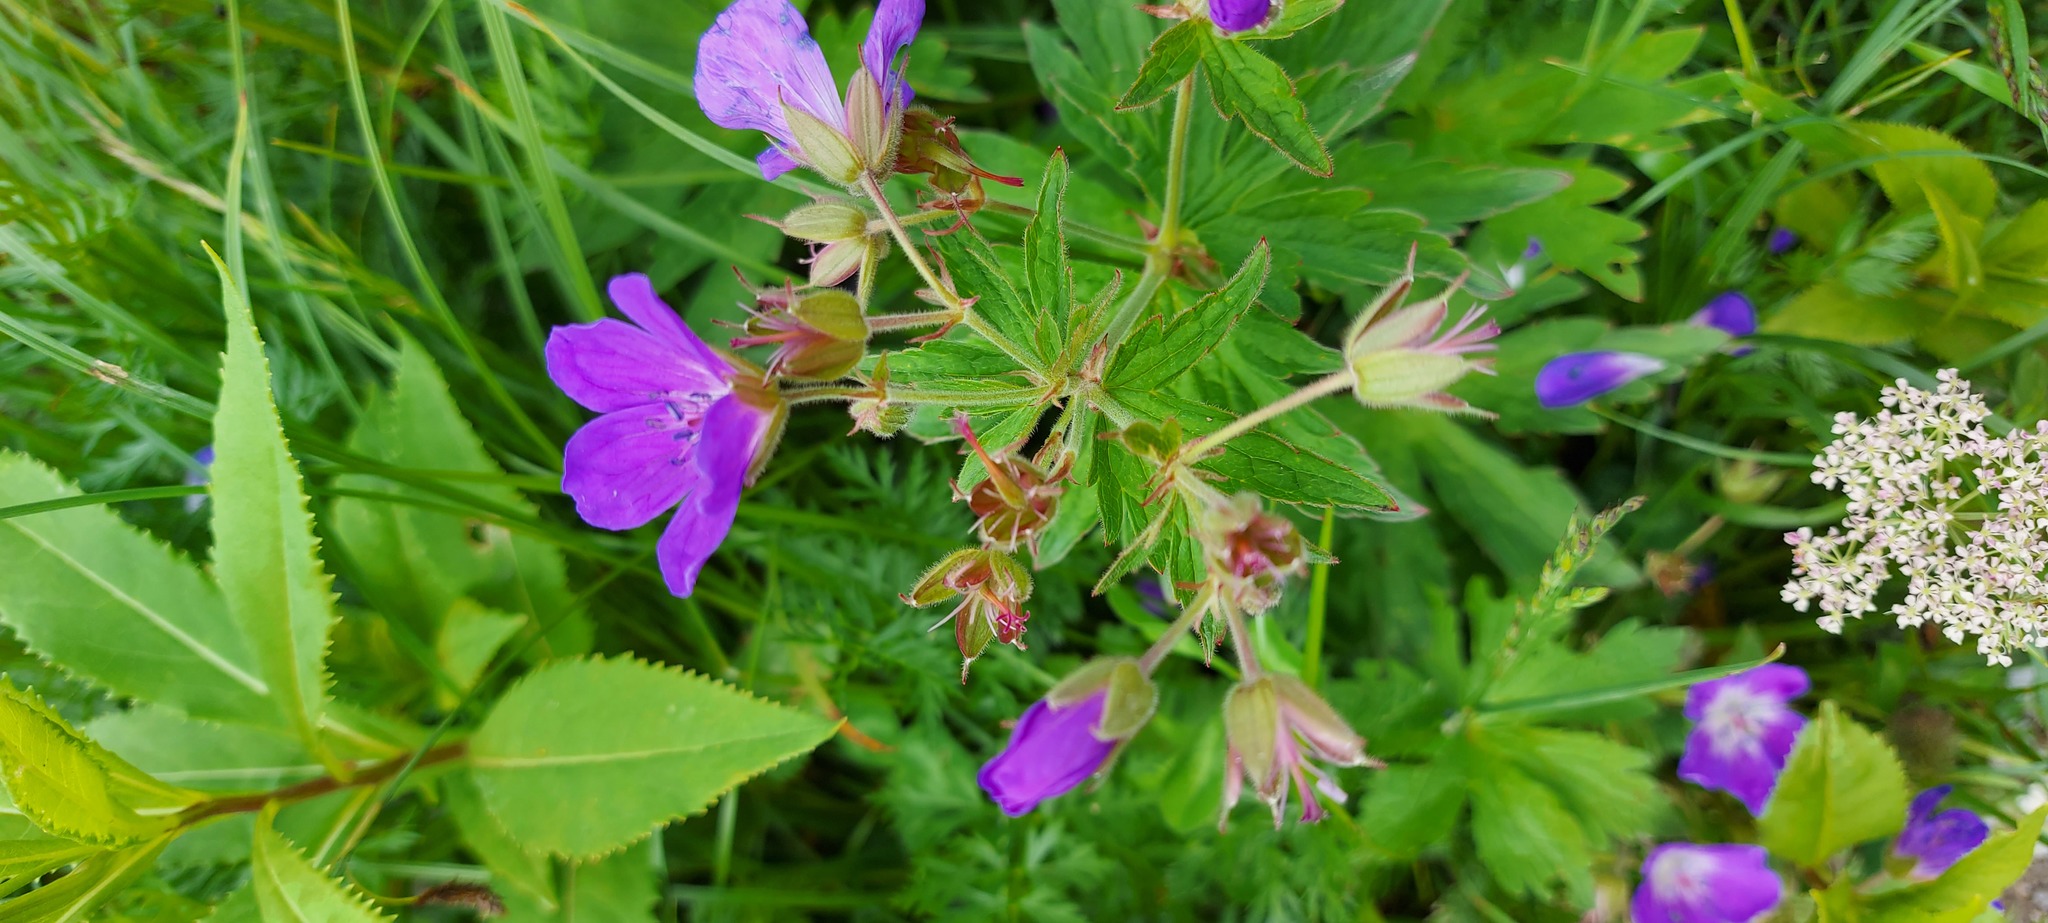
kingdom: Plantae
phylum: Tracheophyta
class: Magnoliopsida
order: Geraniales
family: Geraniaceae
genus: Geranium
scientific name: Geranium sylvaticum
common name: Wood crane's-bill
